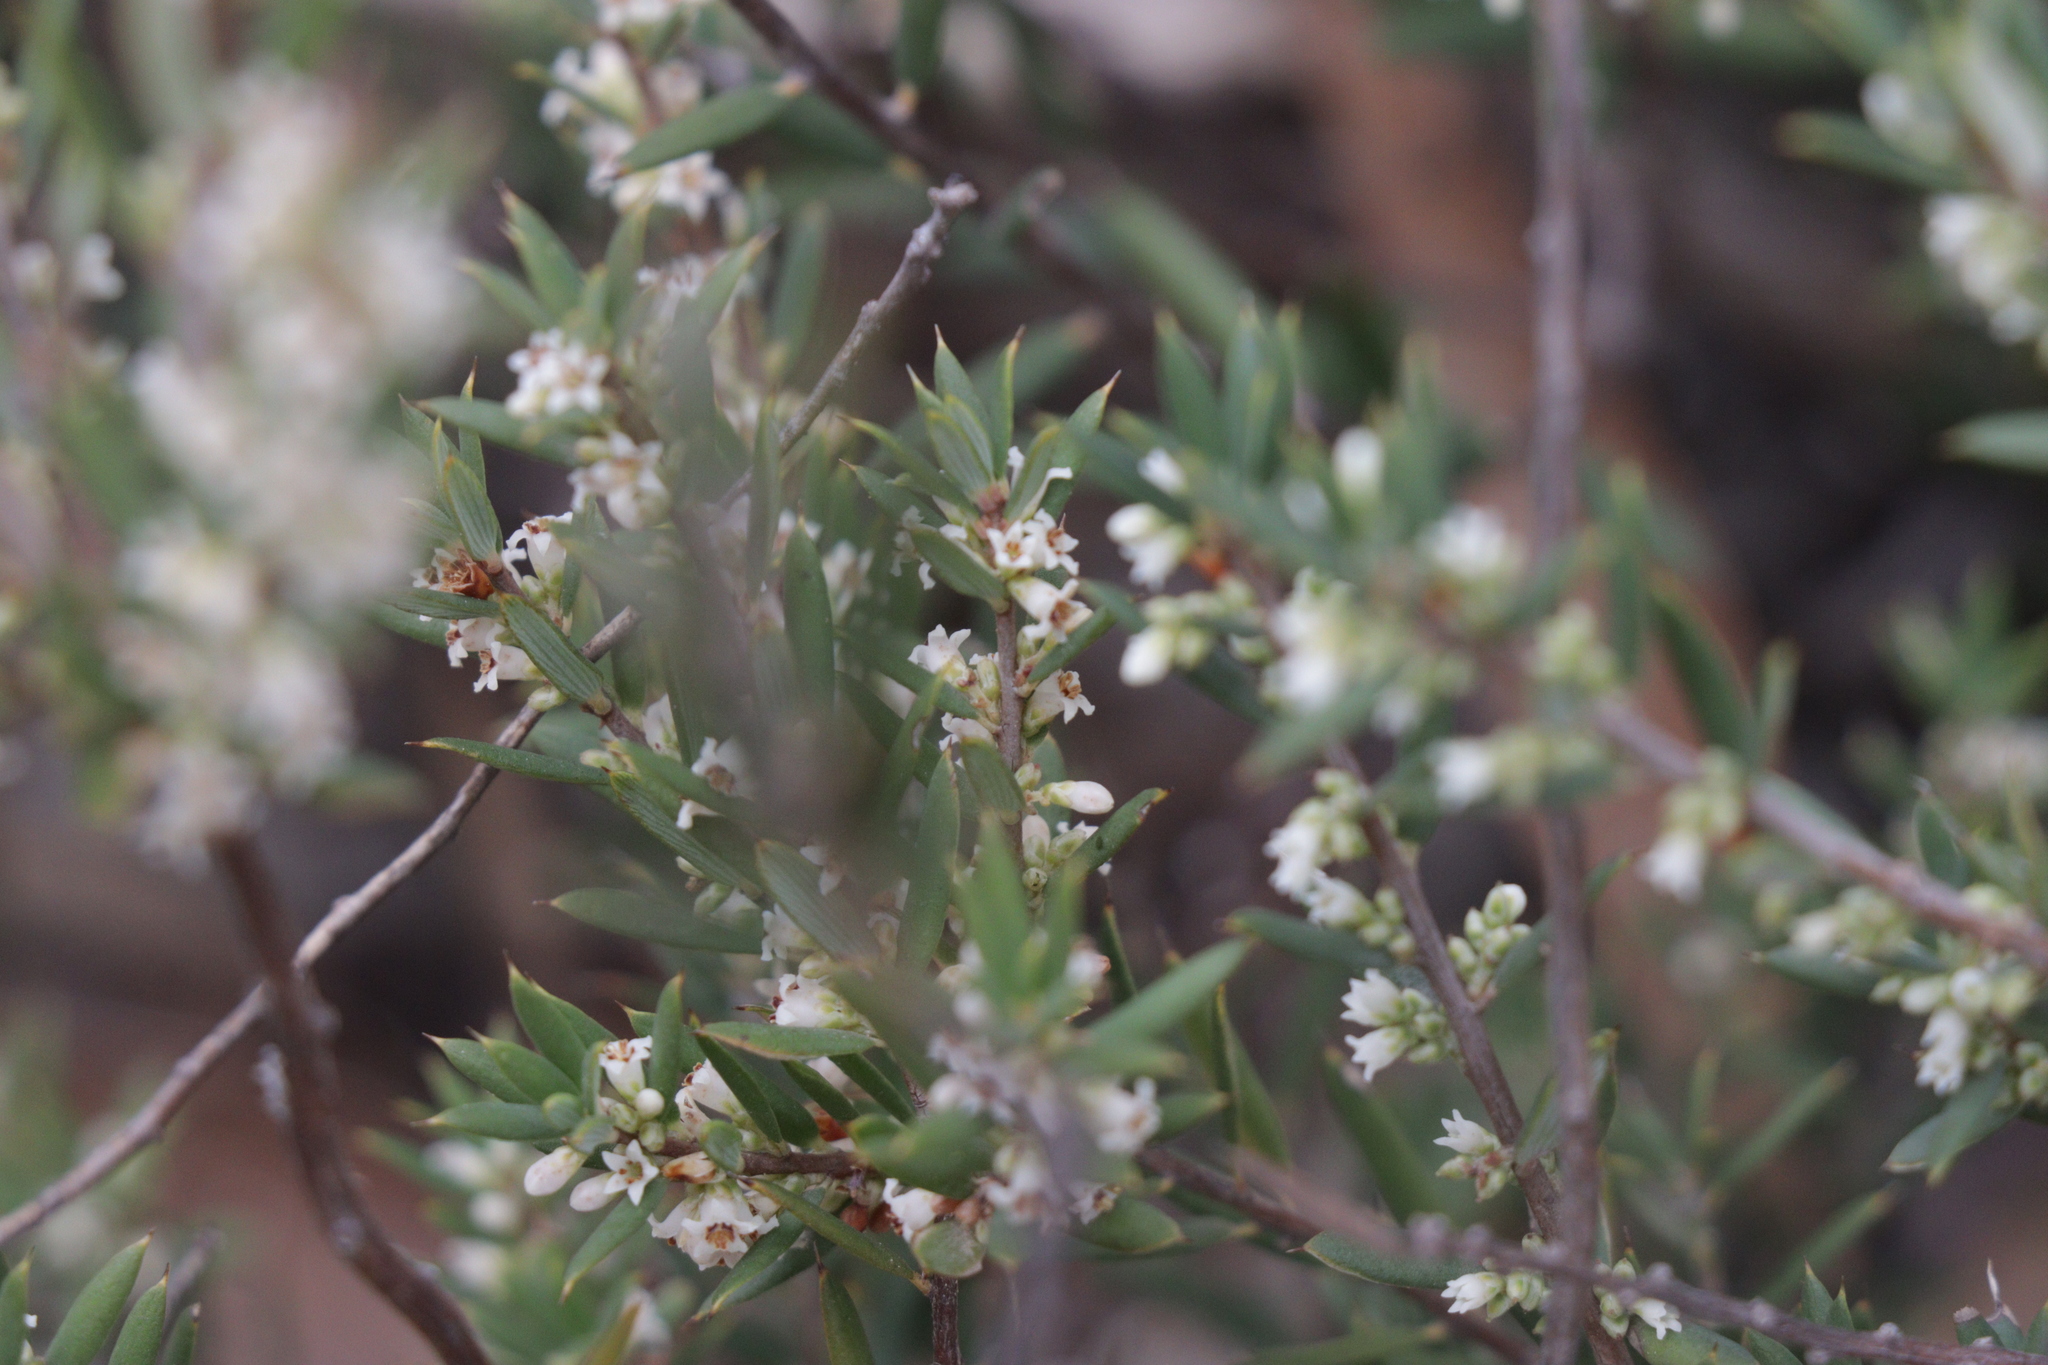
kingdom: Plantae
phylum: Tracheophyta
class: Magnoliopsida
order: Ericales
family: Ericaceae
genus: Monotoca
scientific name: Monotoca scoparia
